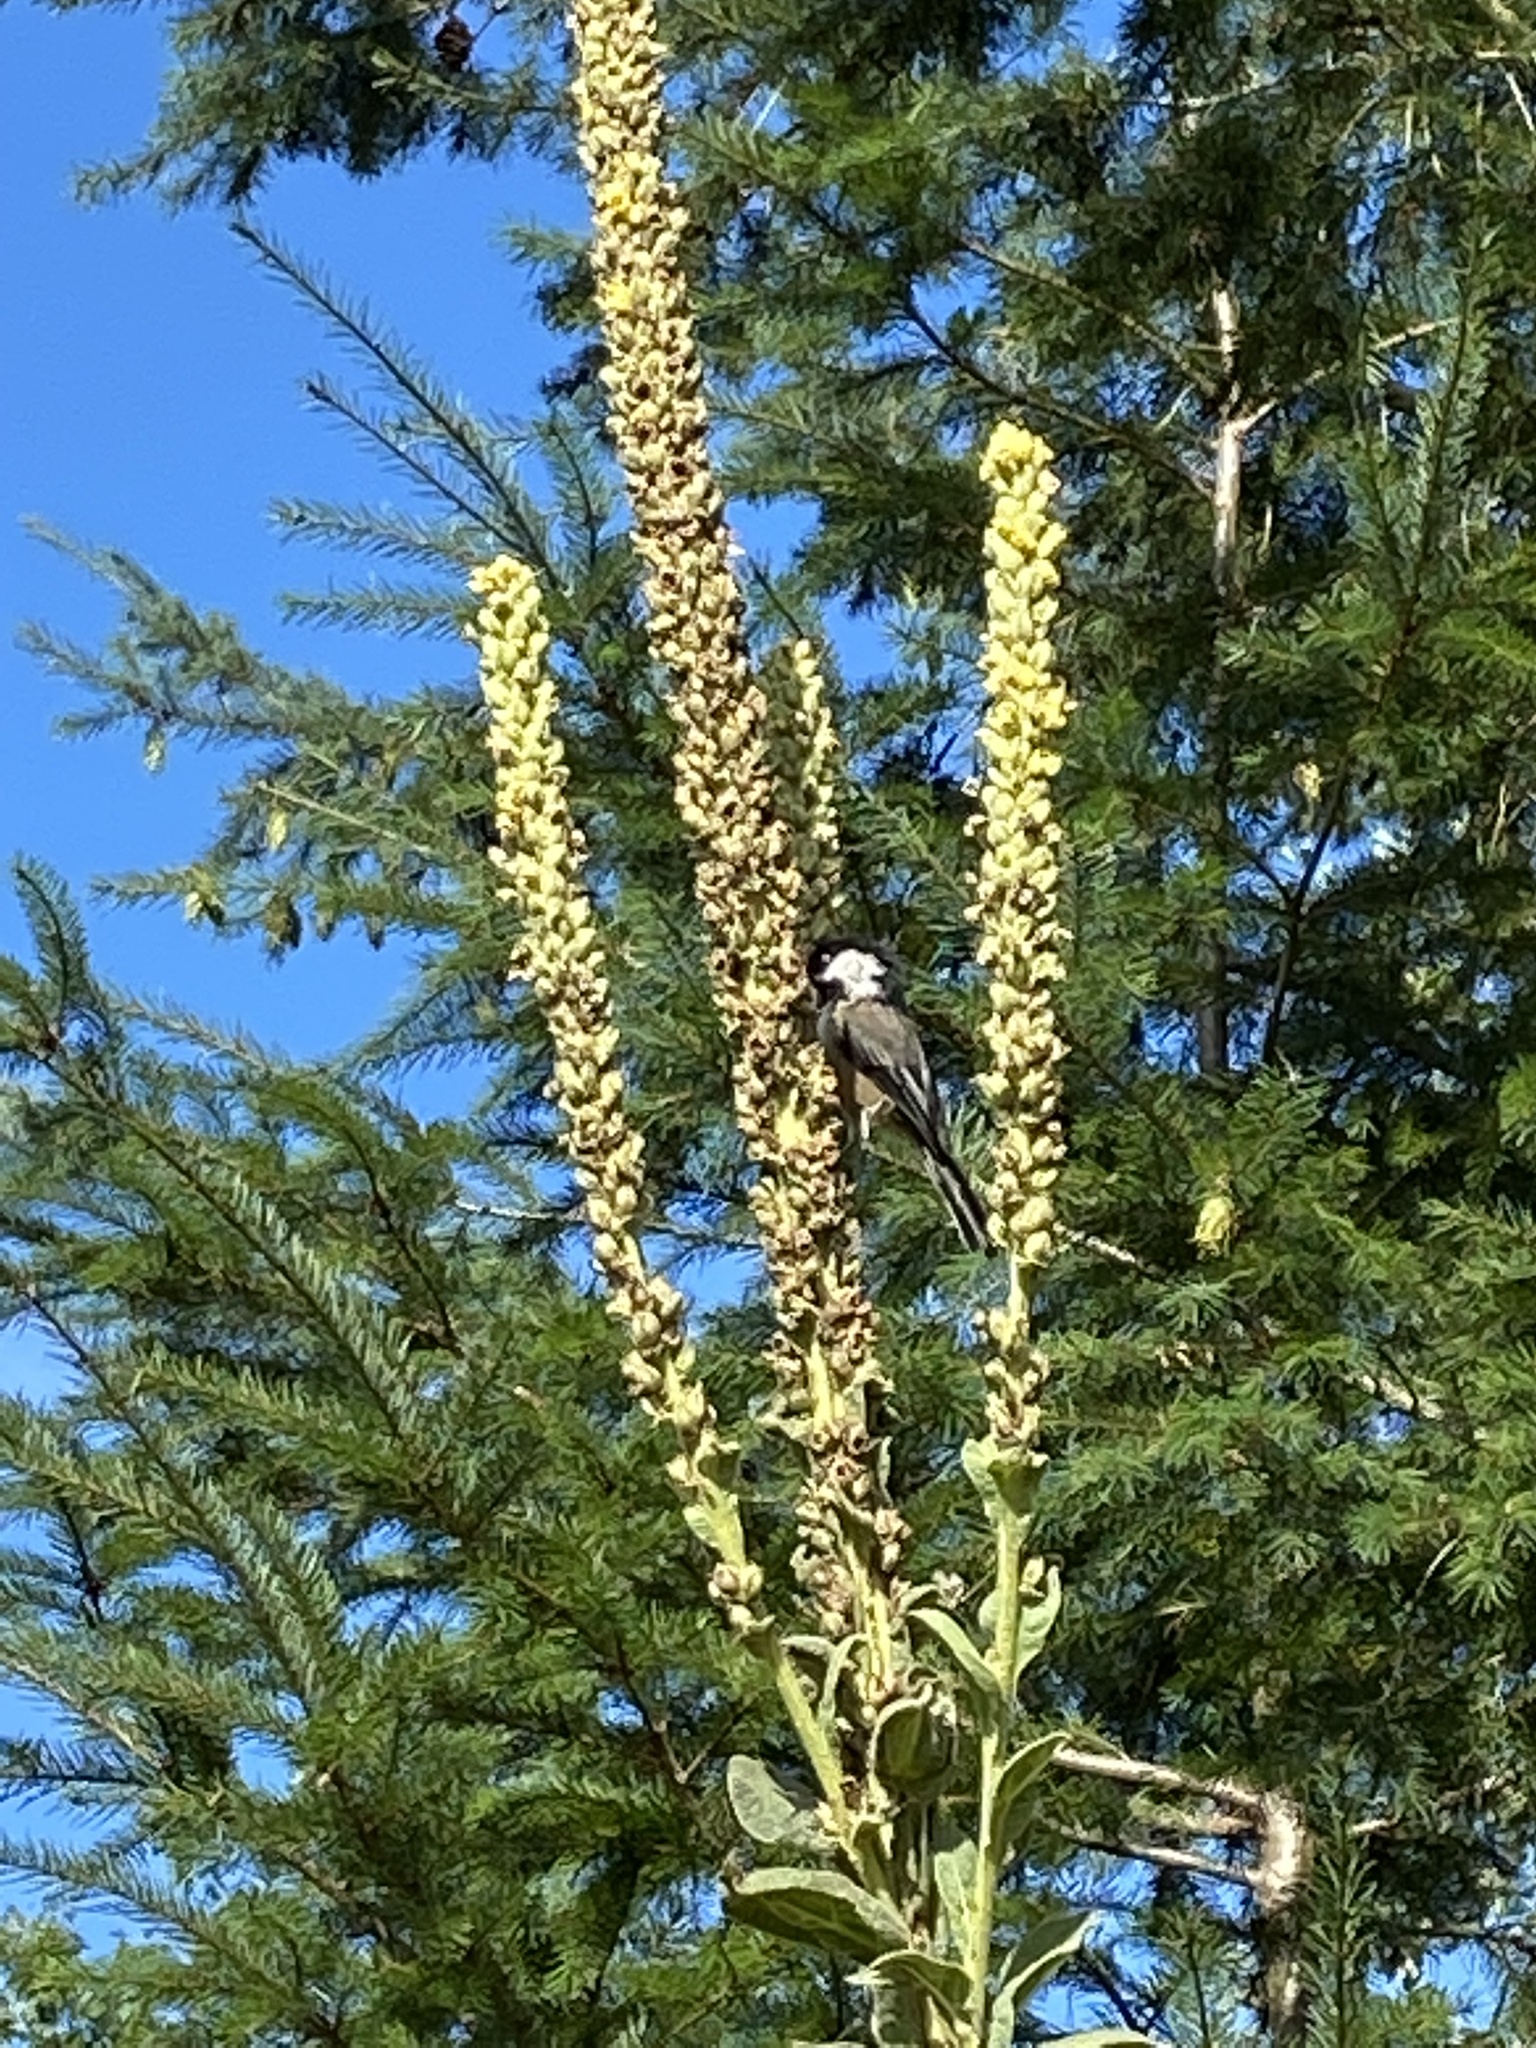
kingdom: Animalia
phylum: Chordata
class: Aves
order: Passeriformes
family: Paridae
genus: Poecile
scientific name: Poecile atricapillus
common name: Black-capped chickadee
